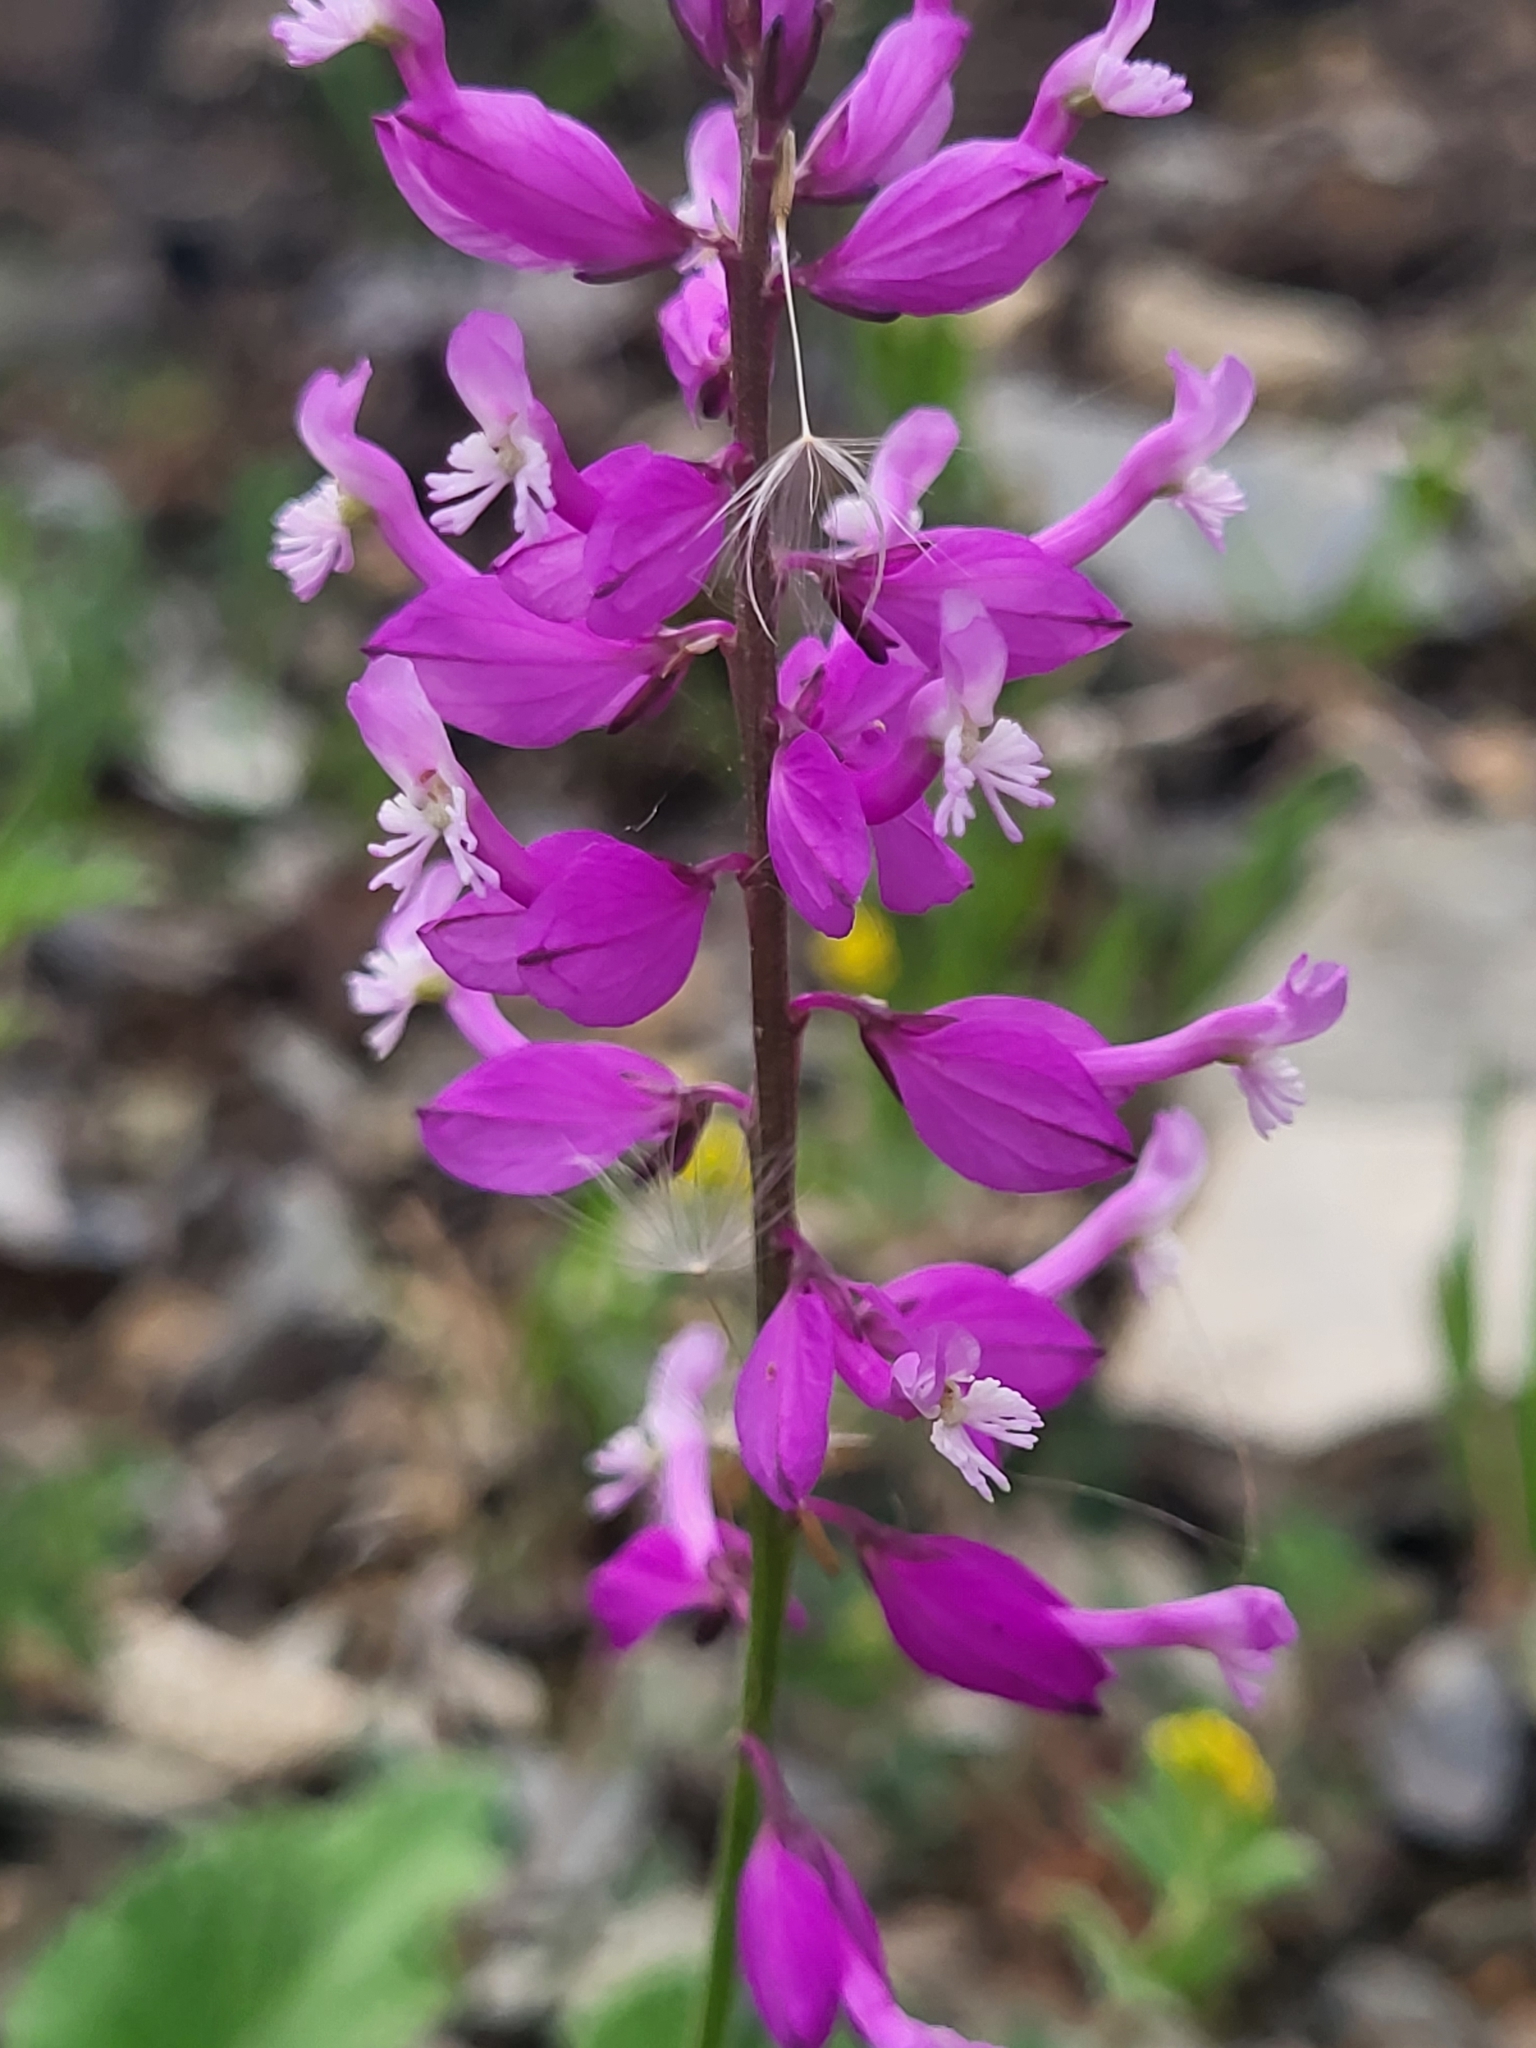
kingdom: Plantae
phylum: Tracheophyta
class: Magnoliopsida
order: Fabales
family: Polygalaceae
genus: Polygala
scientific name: Polygala major
